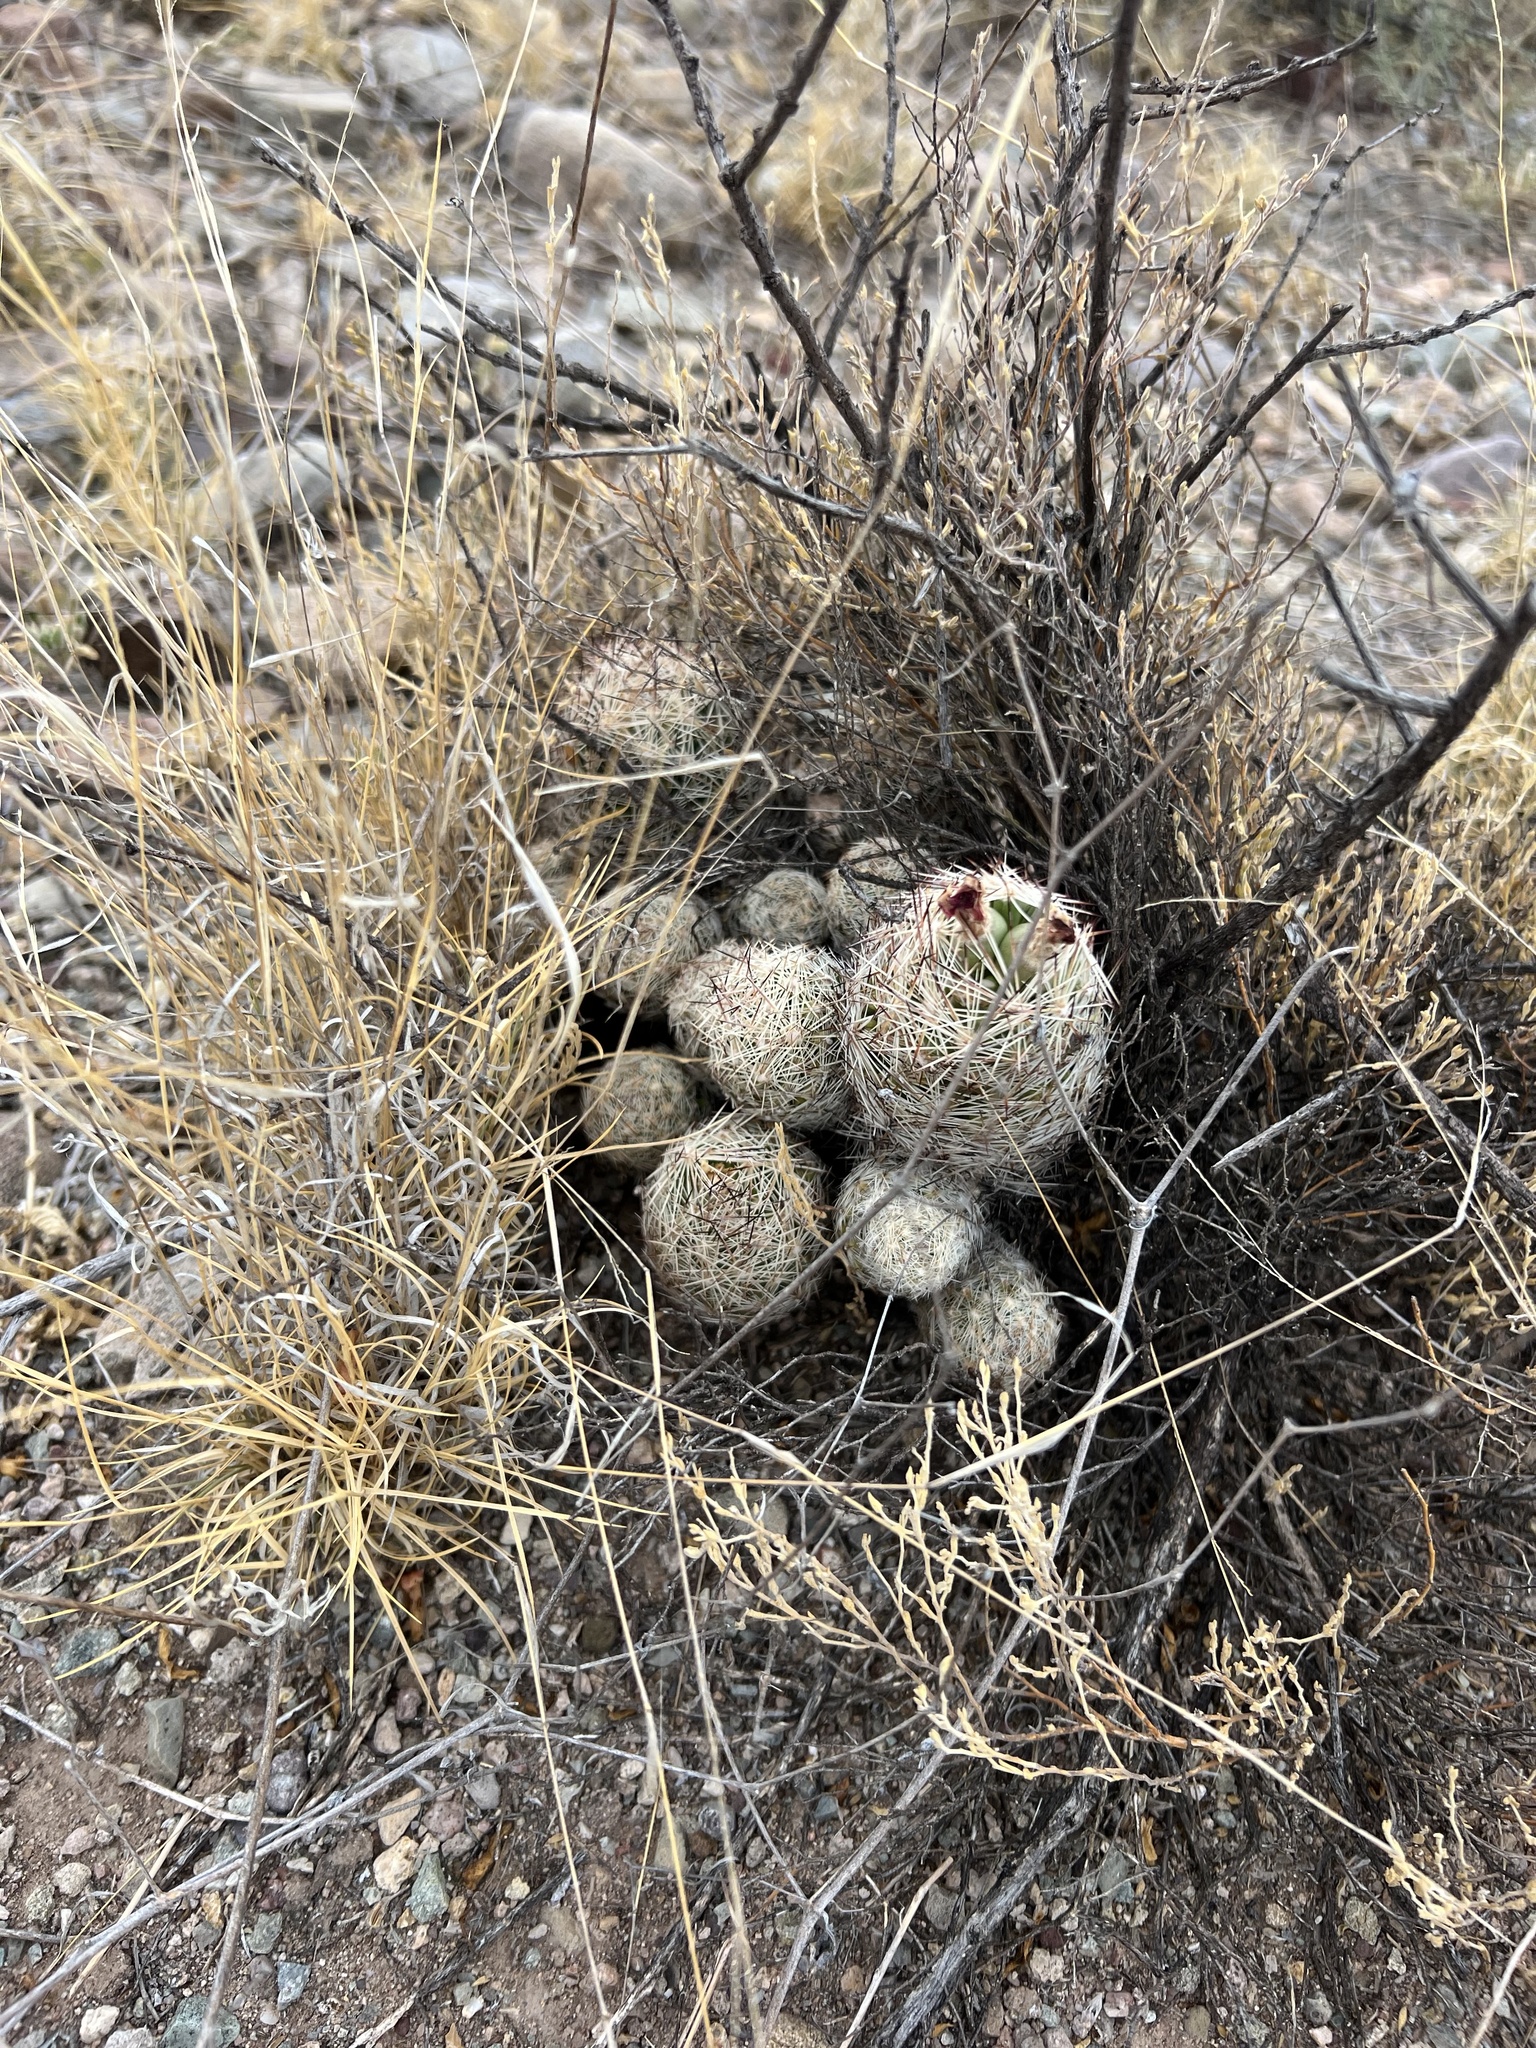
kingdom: Plantae
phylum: Tracheophyta
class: Magnoliopsida
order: Caryophyllales
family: Cactaceae
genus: Pelecyphora
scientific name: Pelecyphora vivipara
